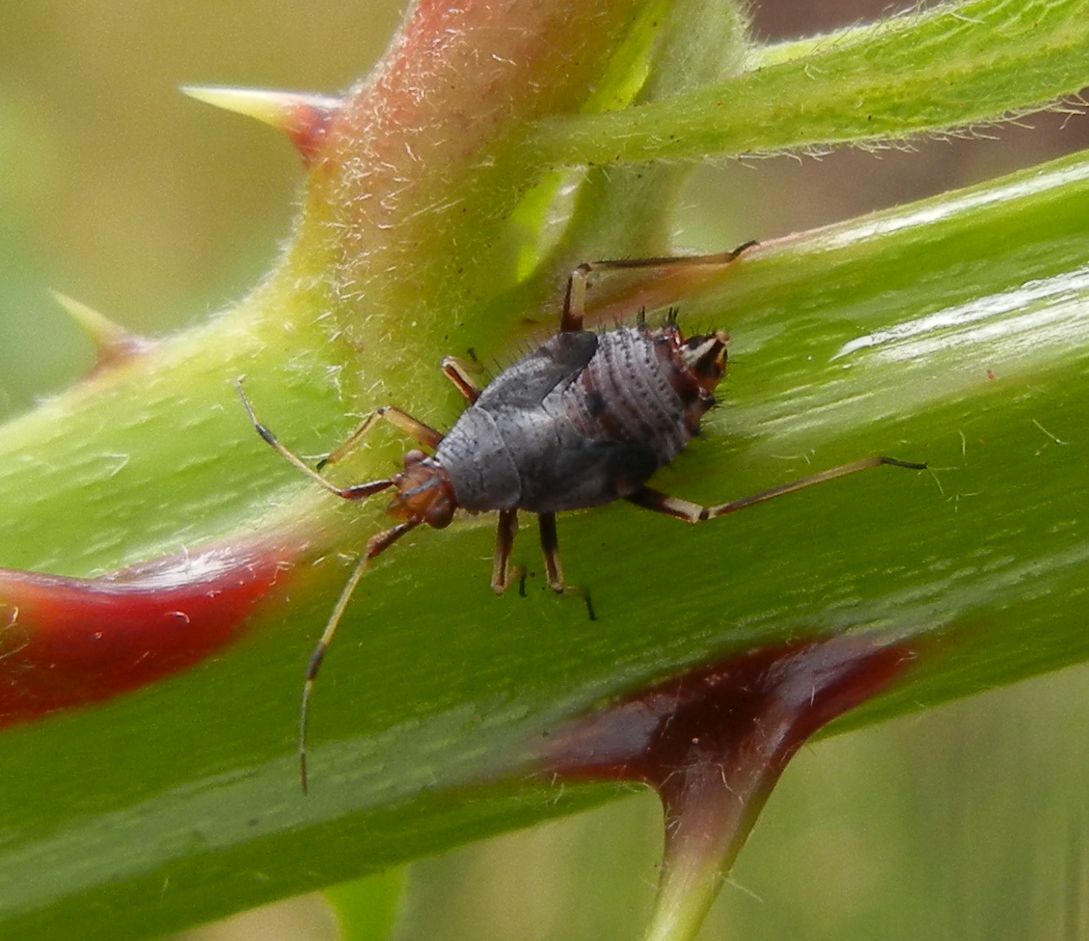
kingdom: Animalia
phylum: Arthropoda
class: Insecta
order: Hemiptera
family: Miridae
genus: Deraeocoris
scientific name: Deraeocoris ruber
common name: Plant bug
